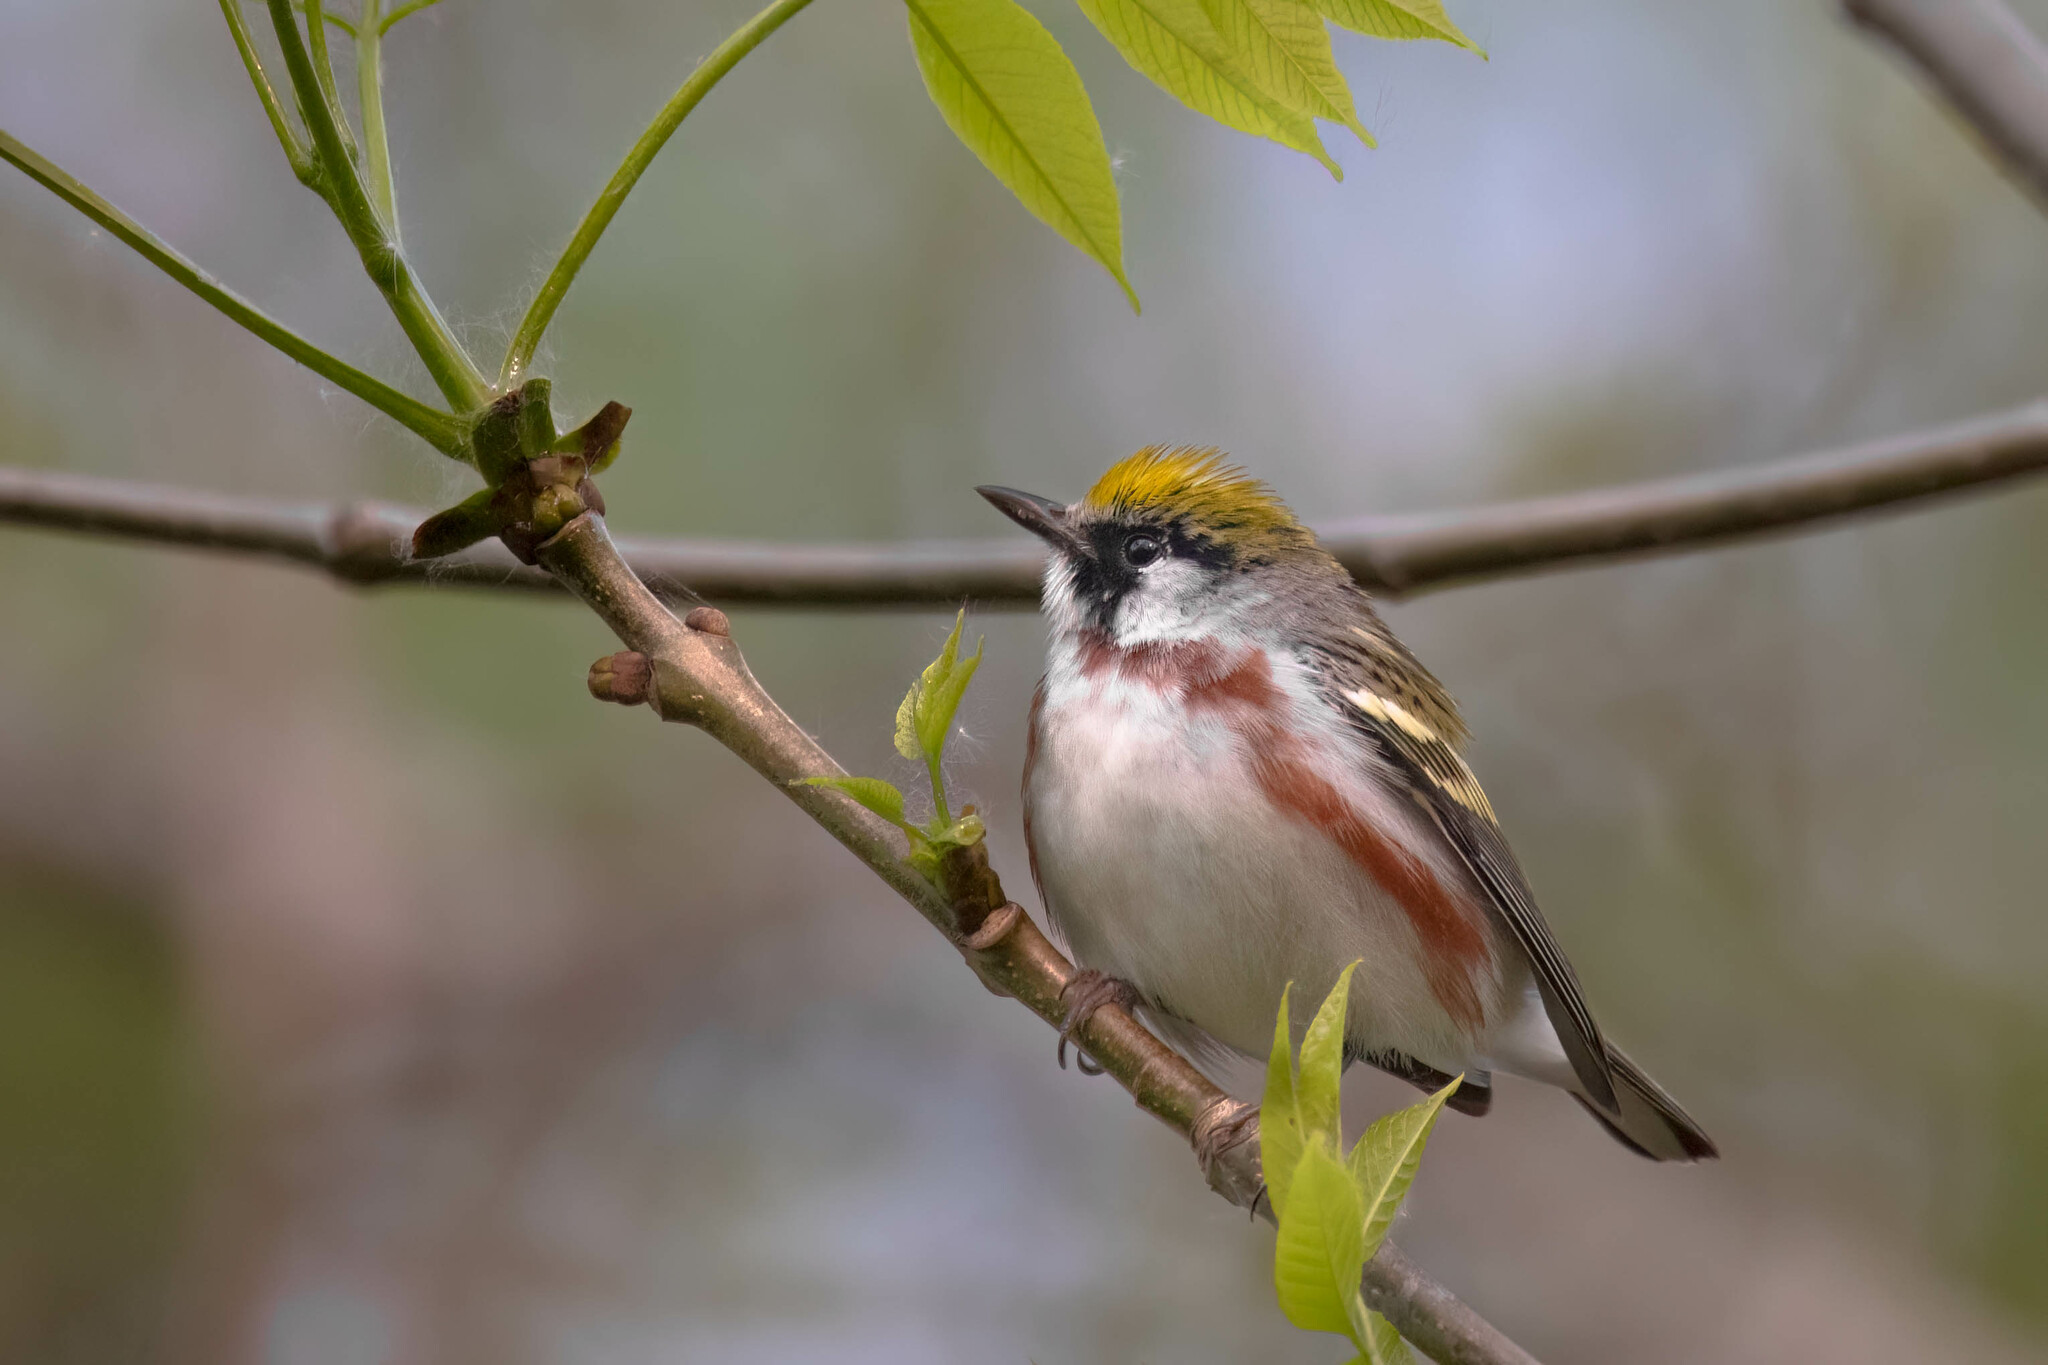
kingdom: Animalia
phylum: Chordata
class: Aves
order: Passeriformes
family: Parulidae
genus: Setophaga
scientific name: Setophaga pensylvanica
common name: Chestnut-sided warbler
